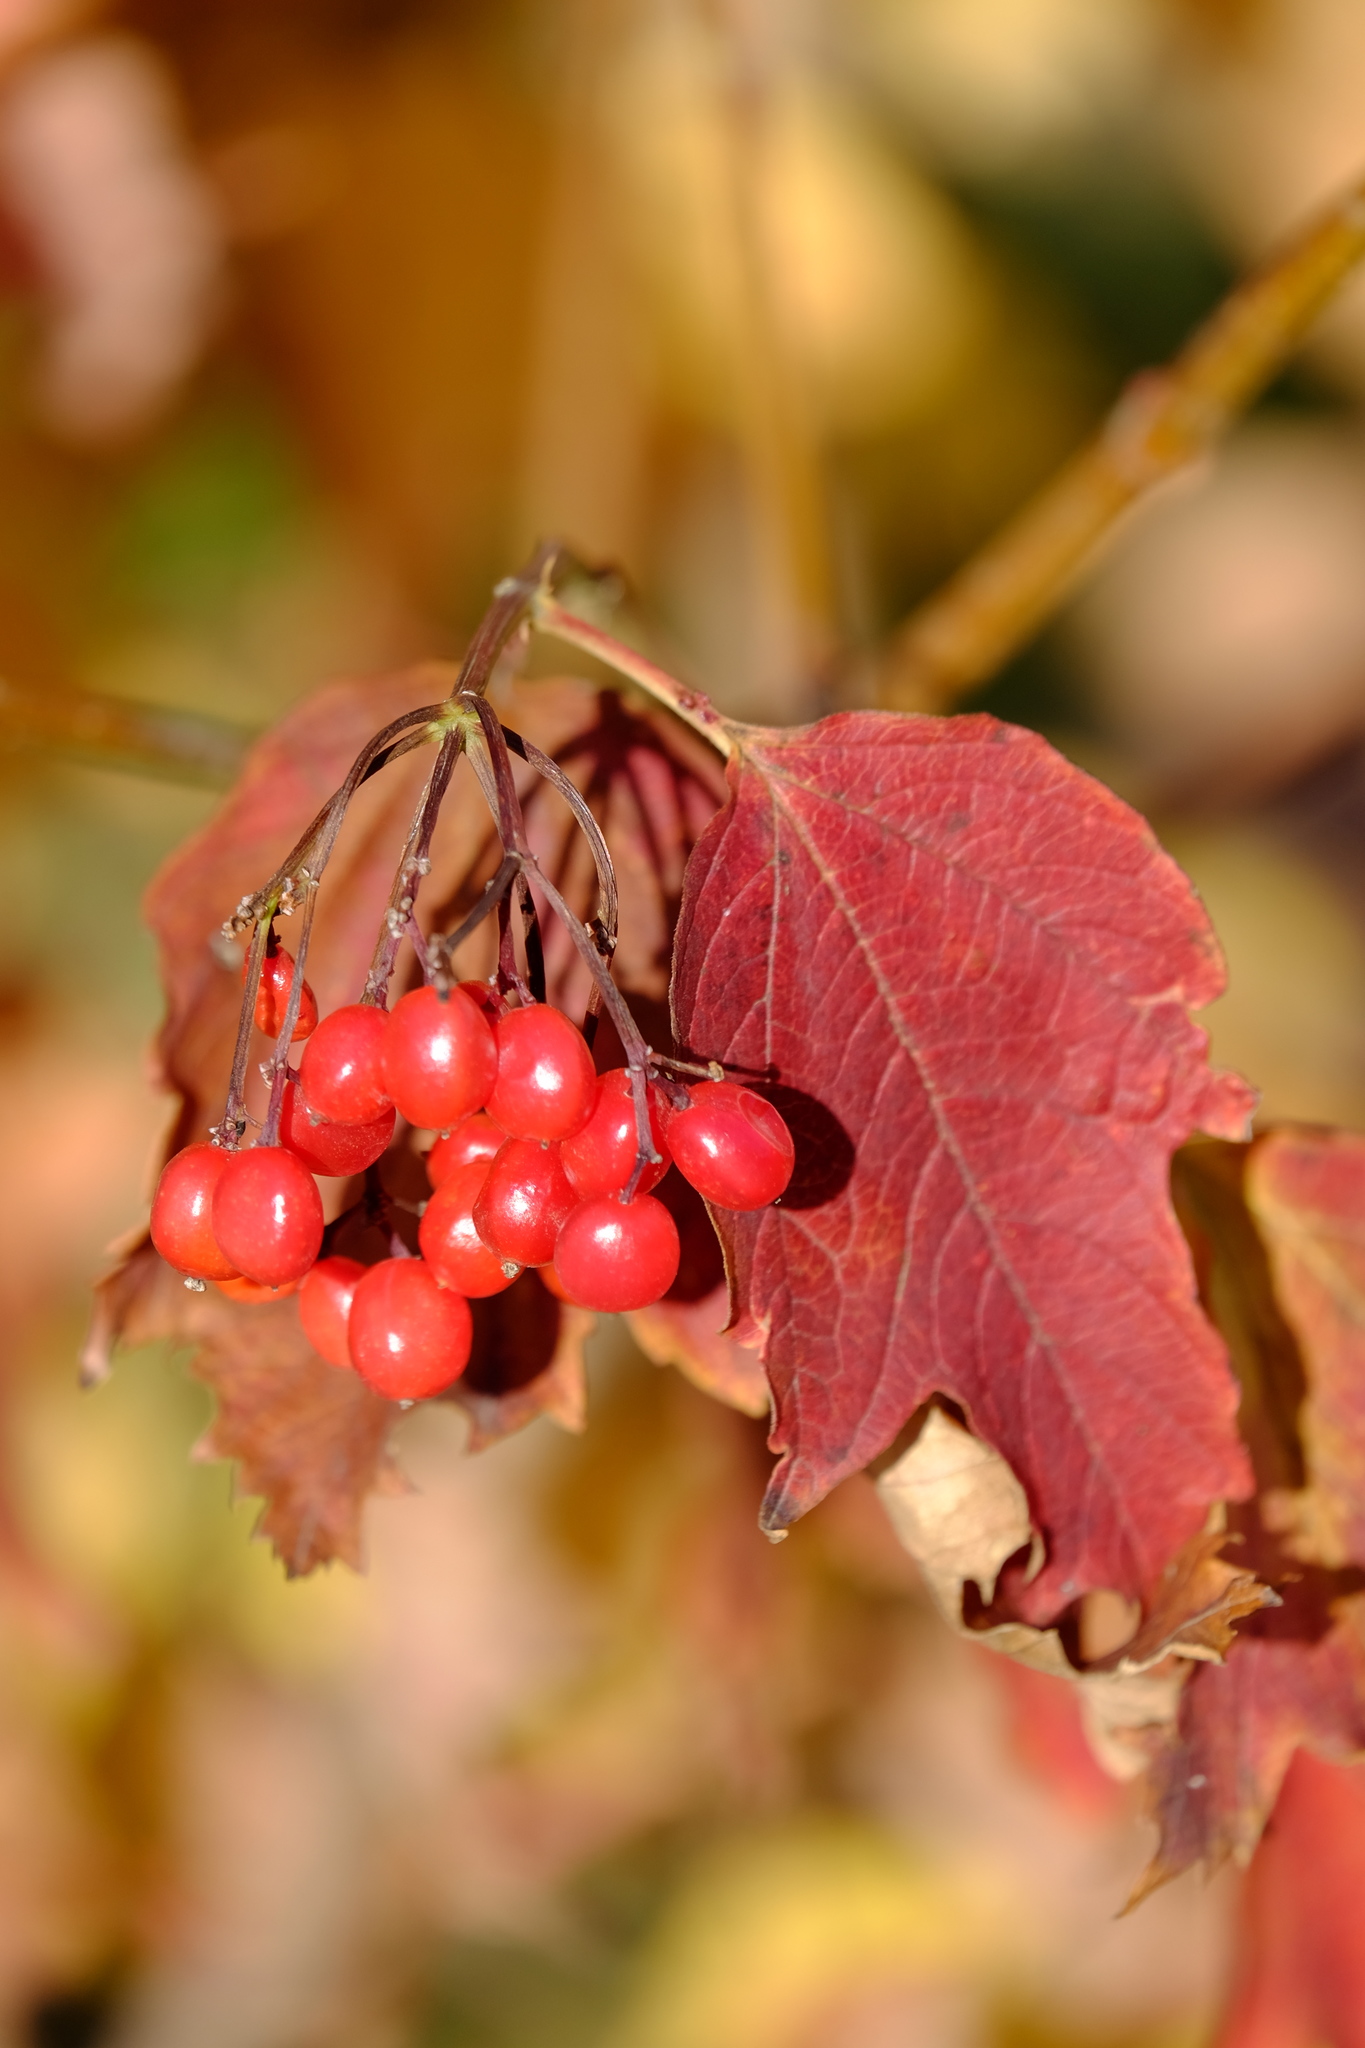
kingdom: Plantae
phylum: Tracheophyta
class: Magnoliopsida
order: Dipsacales
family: Viburnaceae
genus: Viburnum
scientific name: Viburnum opulus
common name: Guelder-rose
